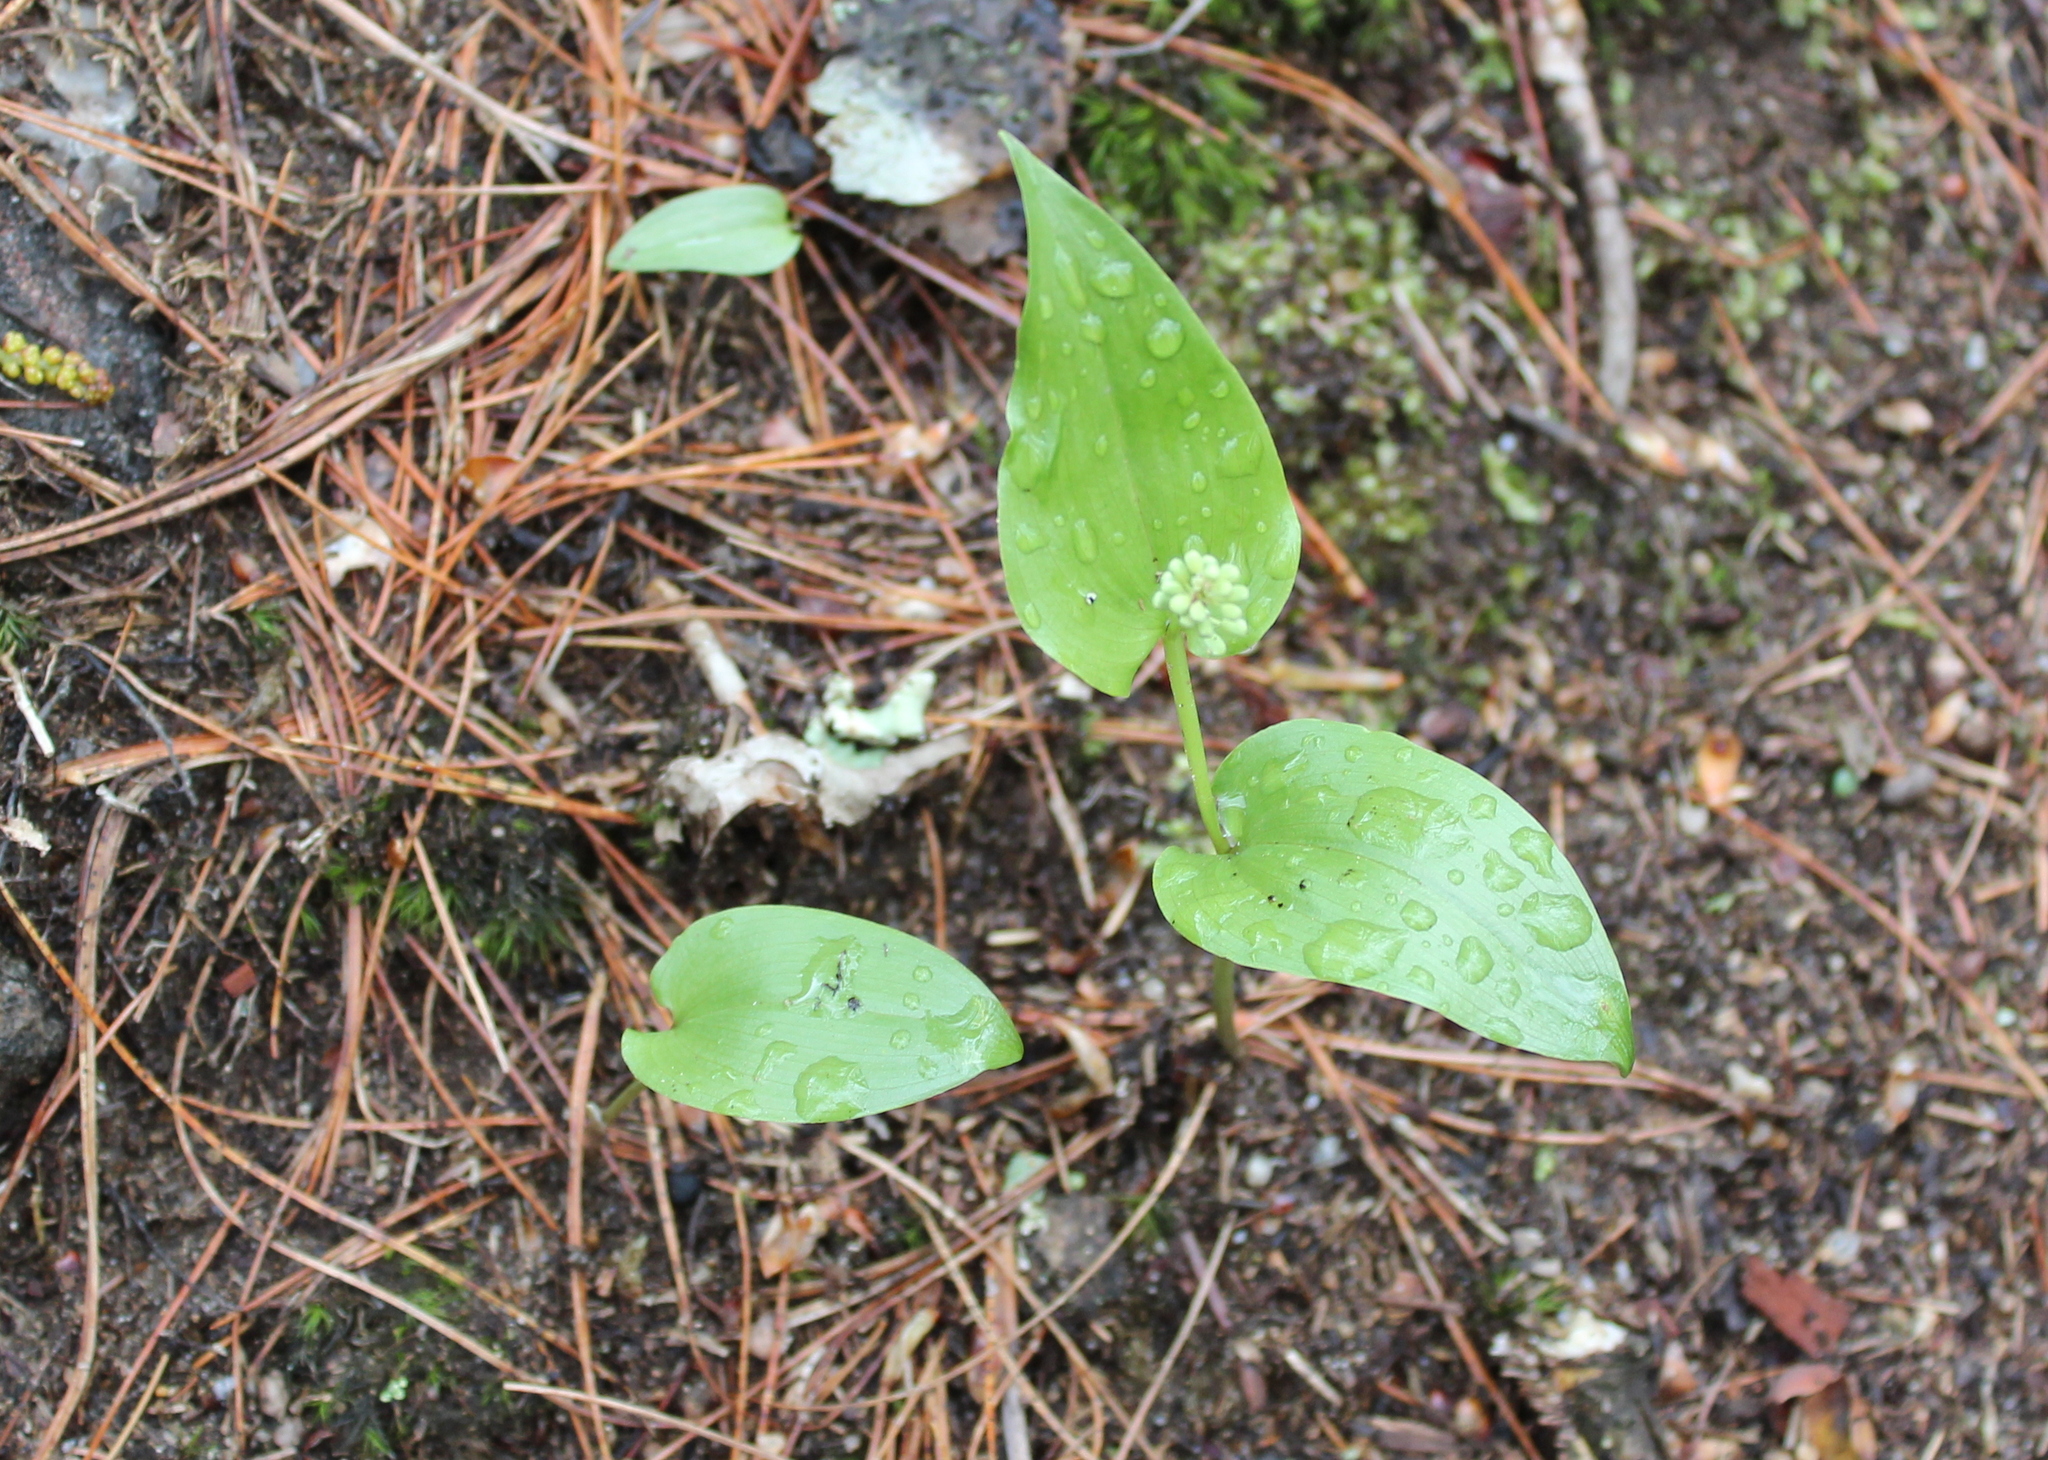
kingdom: Plantae
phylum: Tracheophyta
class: Liliopsida
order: Asparagales
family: Asparagaceae
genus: Maianthemum
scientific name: Maianthemum canadense
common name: False lily-of-the-valley
